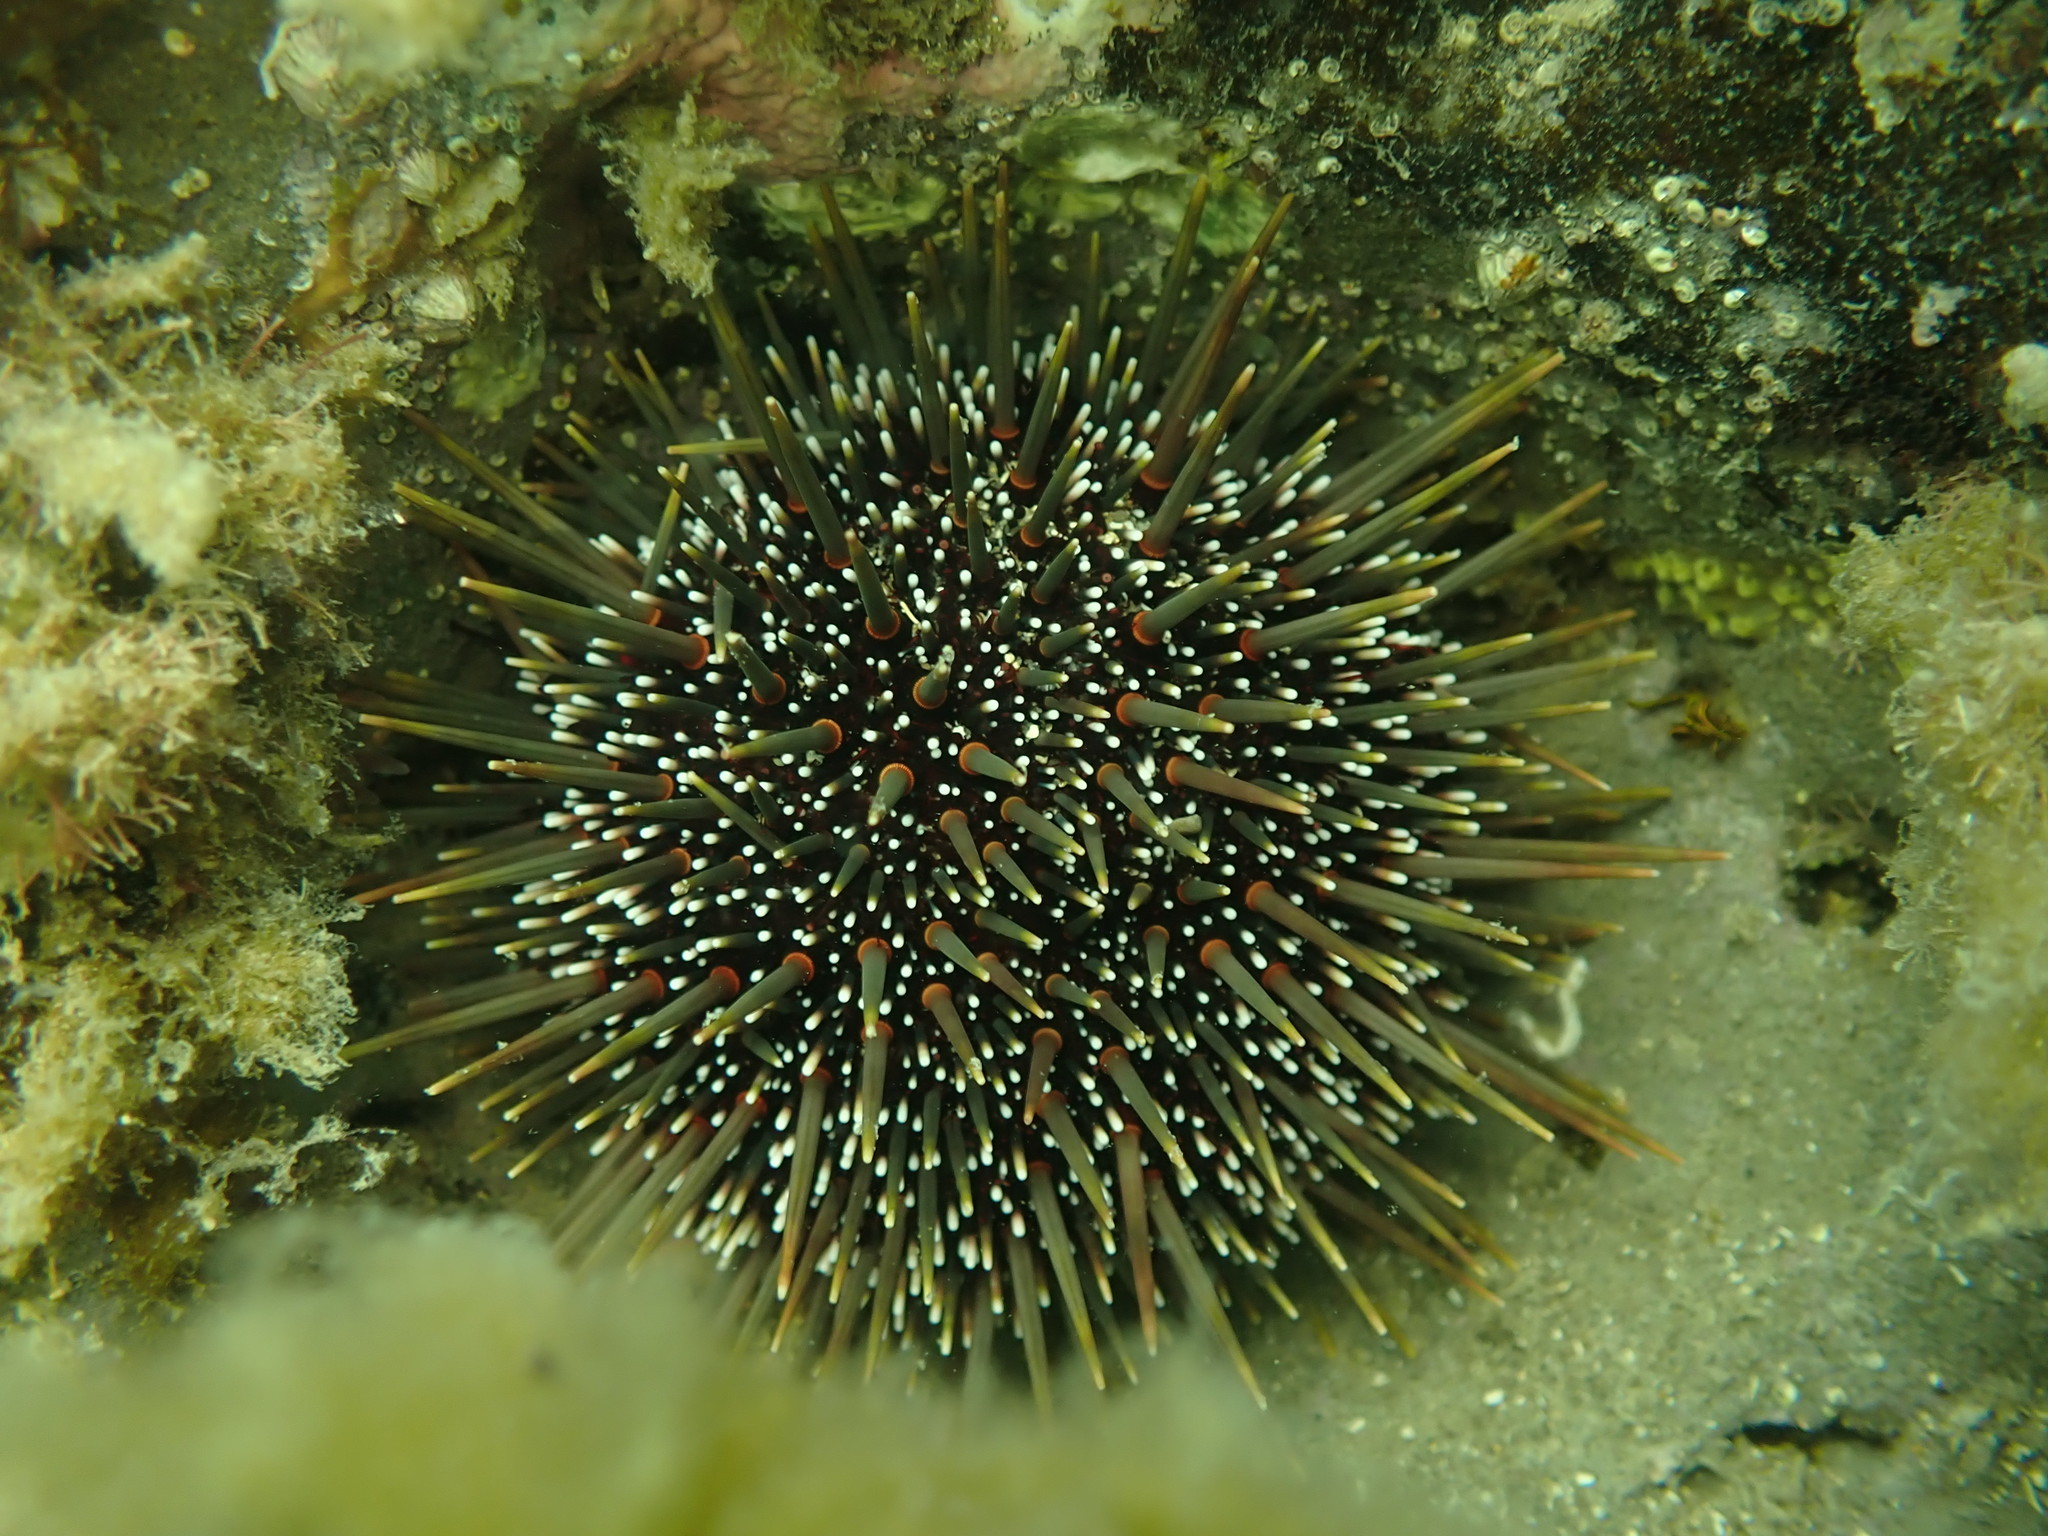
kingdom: Animalia
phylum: Echinodermata
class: Echinoidea
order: Camarodonta
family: Echinometridae
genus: Evechinus
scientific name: Evechinus chloroticus
